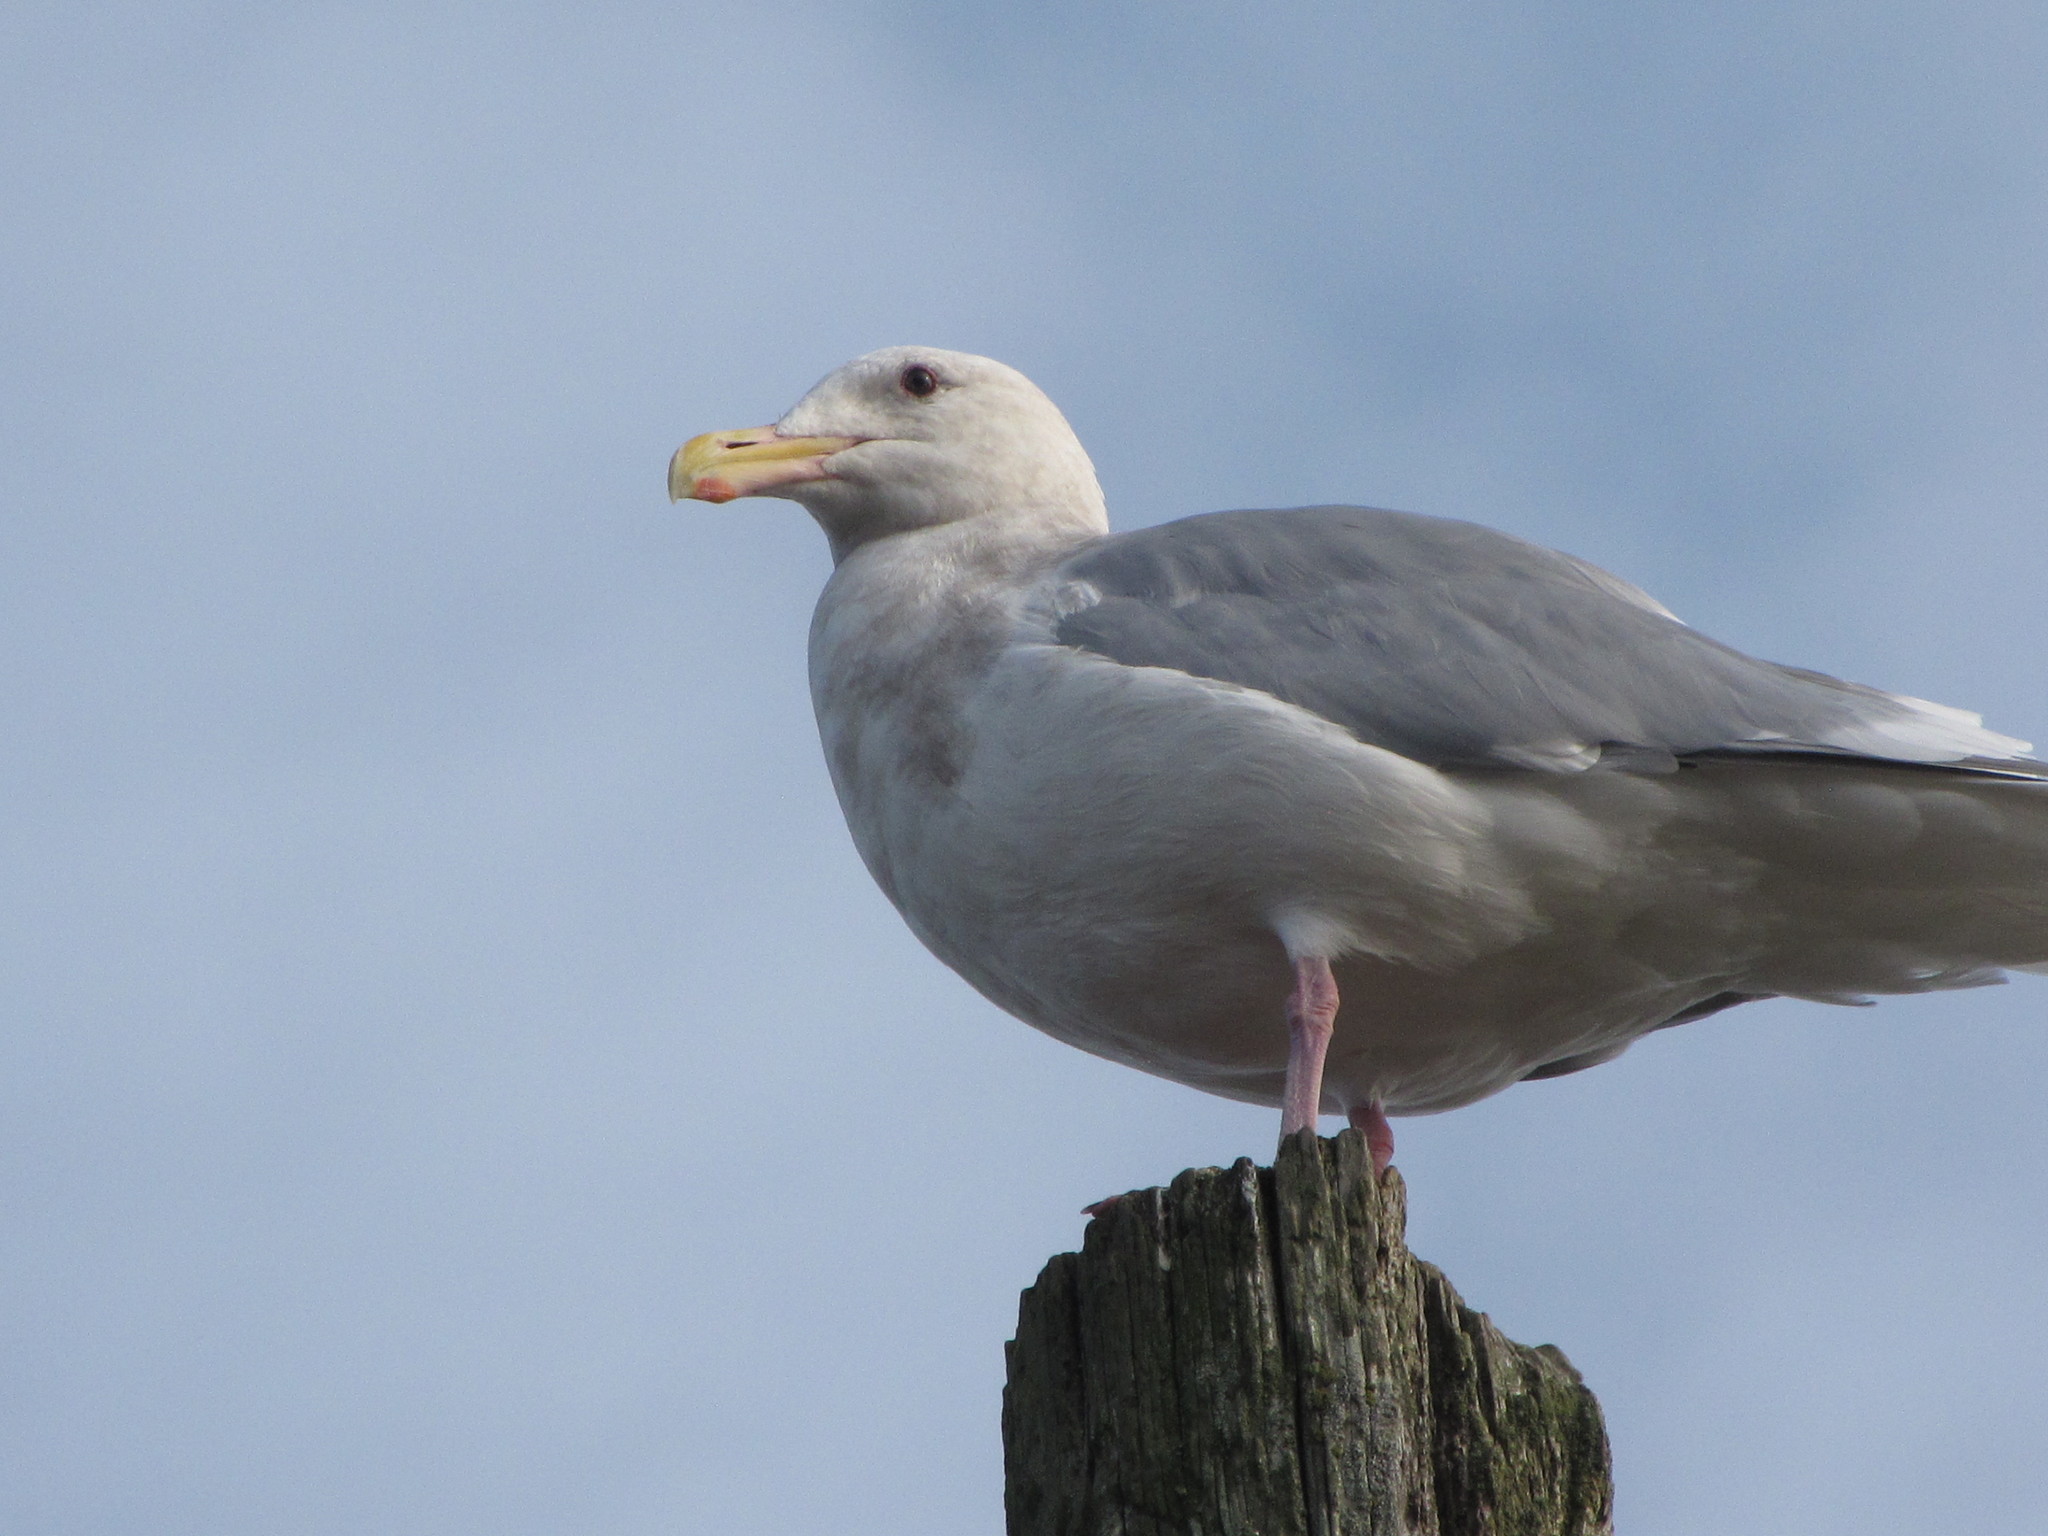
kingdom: Animalia
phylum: Chordata
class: Aves
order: Charadriiformes
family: Laridae
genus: Larus
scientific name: Larus glaucescens
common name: Glaucous-winged gull
